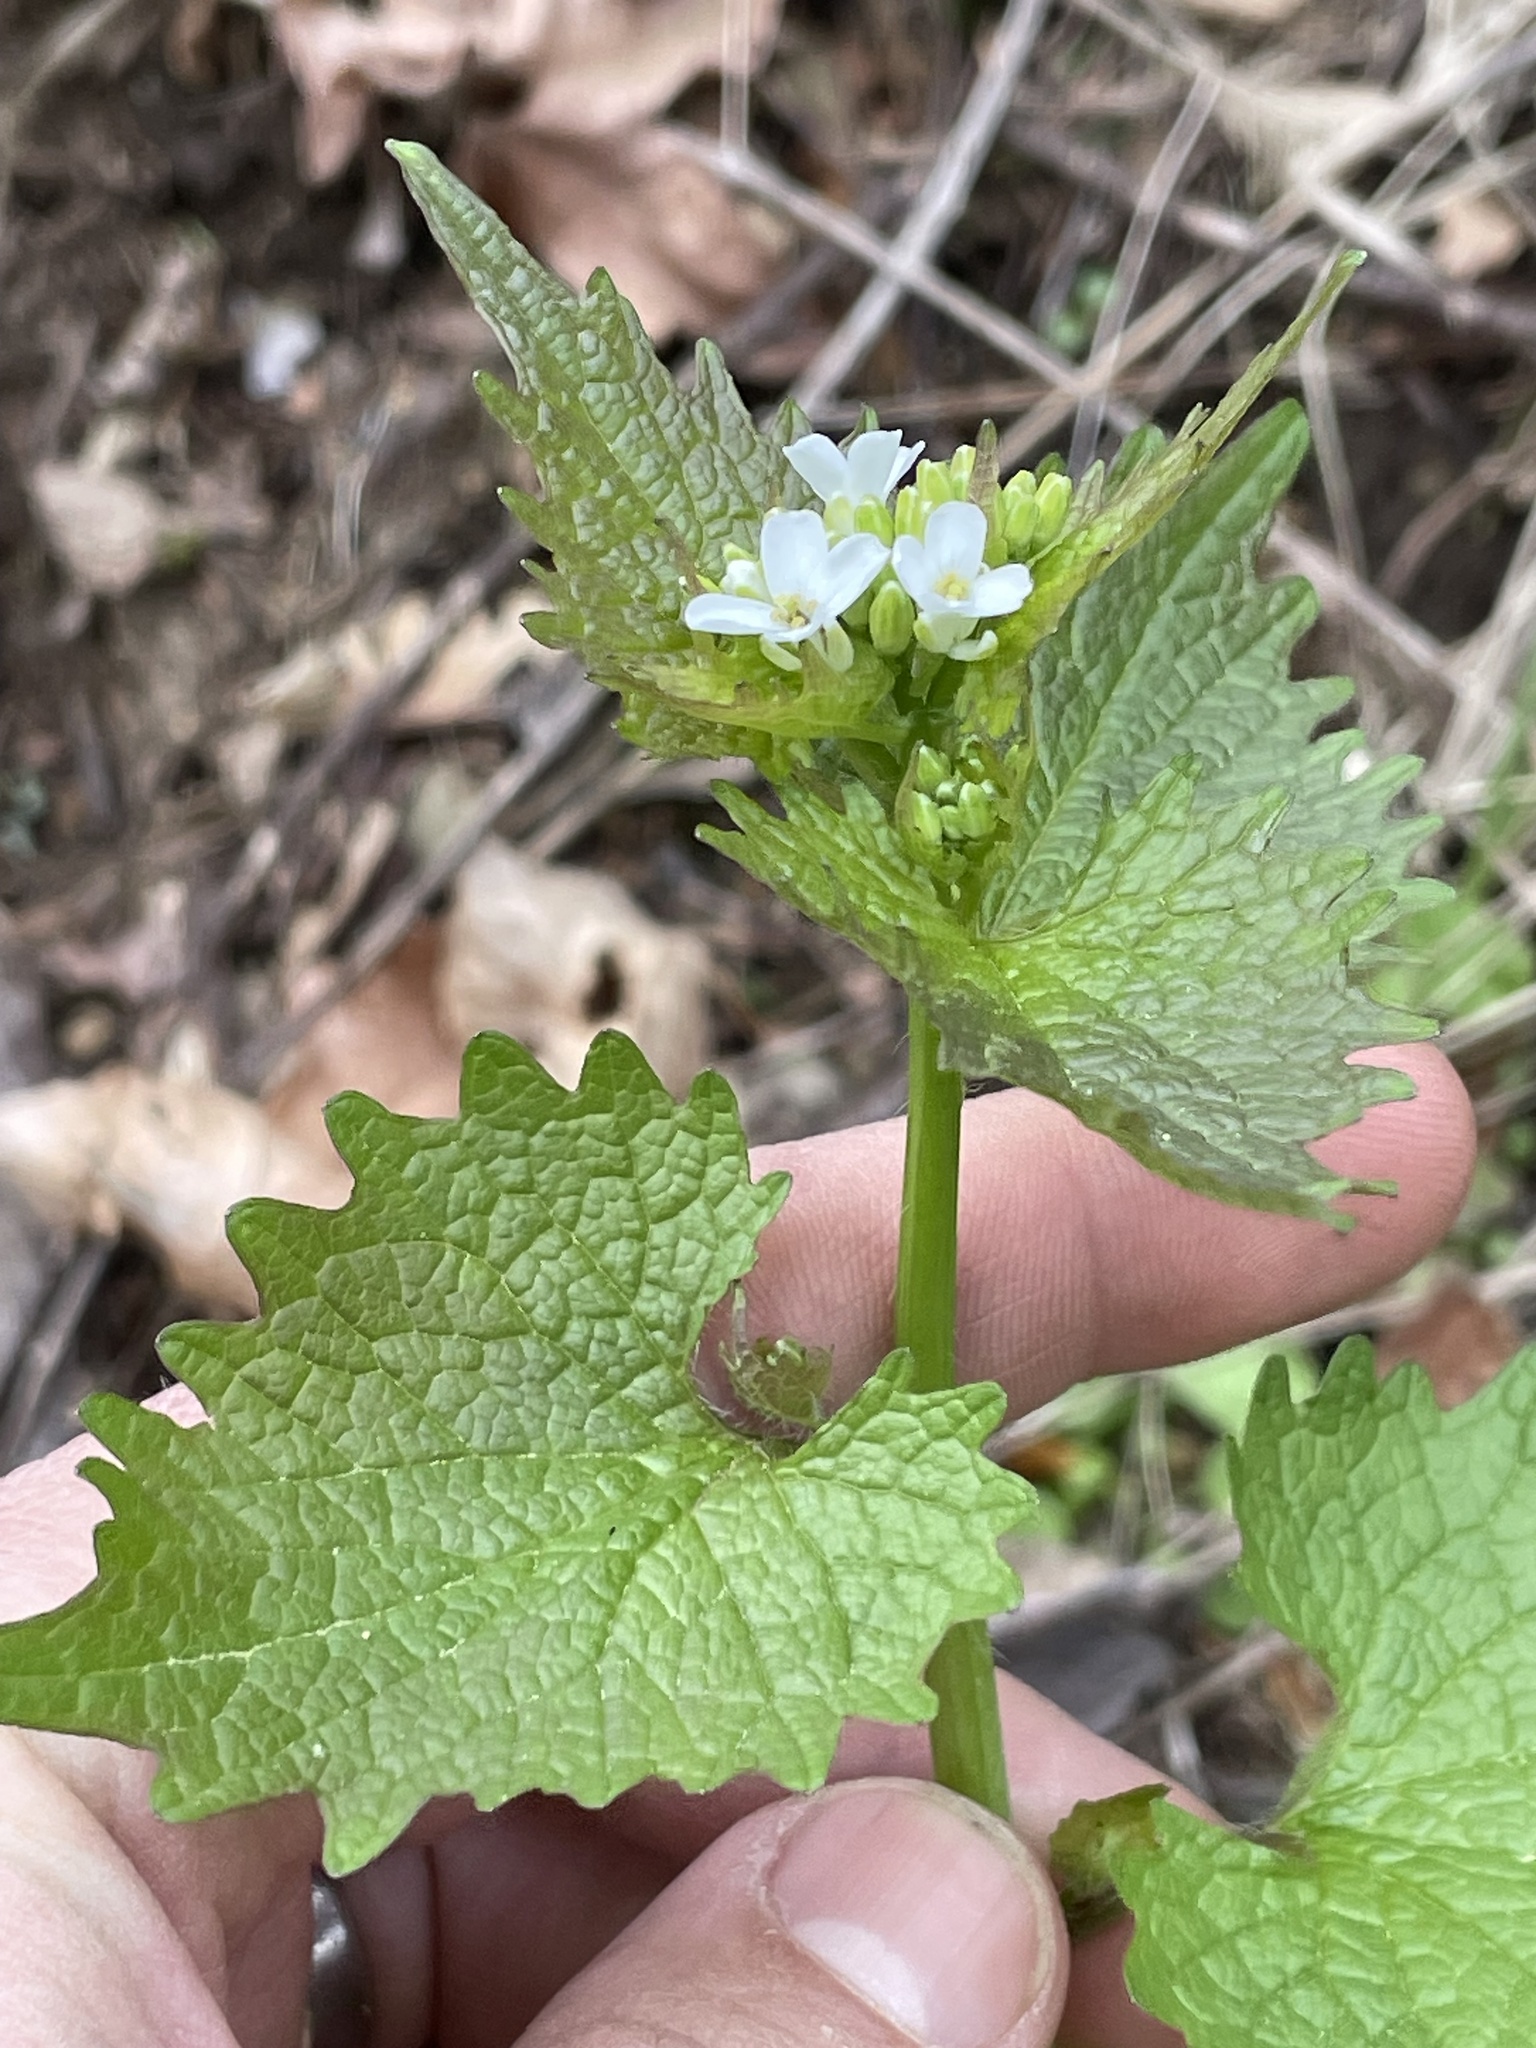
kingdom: Plantae
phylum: Tracheophyta
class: Magnoliopsida
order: Brassicales
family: Brassicaceae
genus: Alliaria
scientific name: Alliaria petiolata
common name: Garlic mustard
